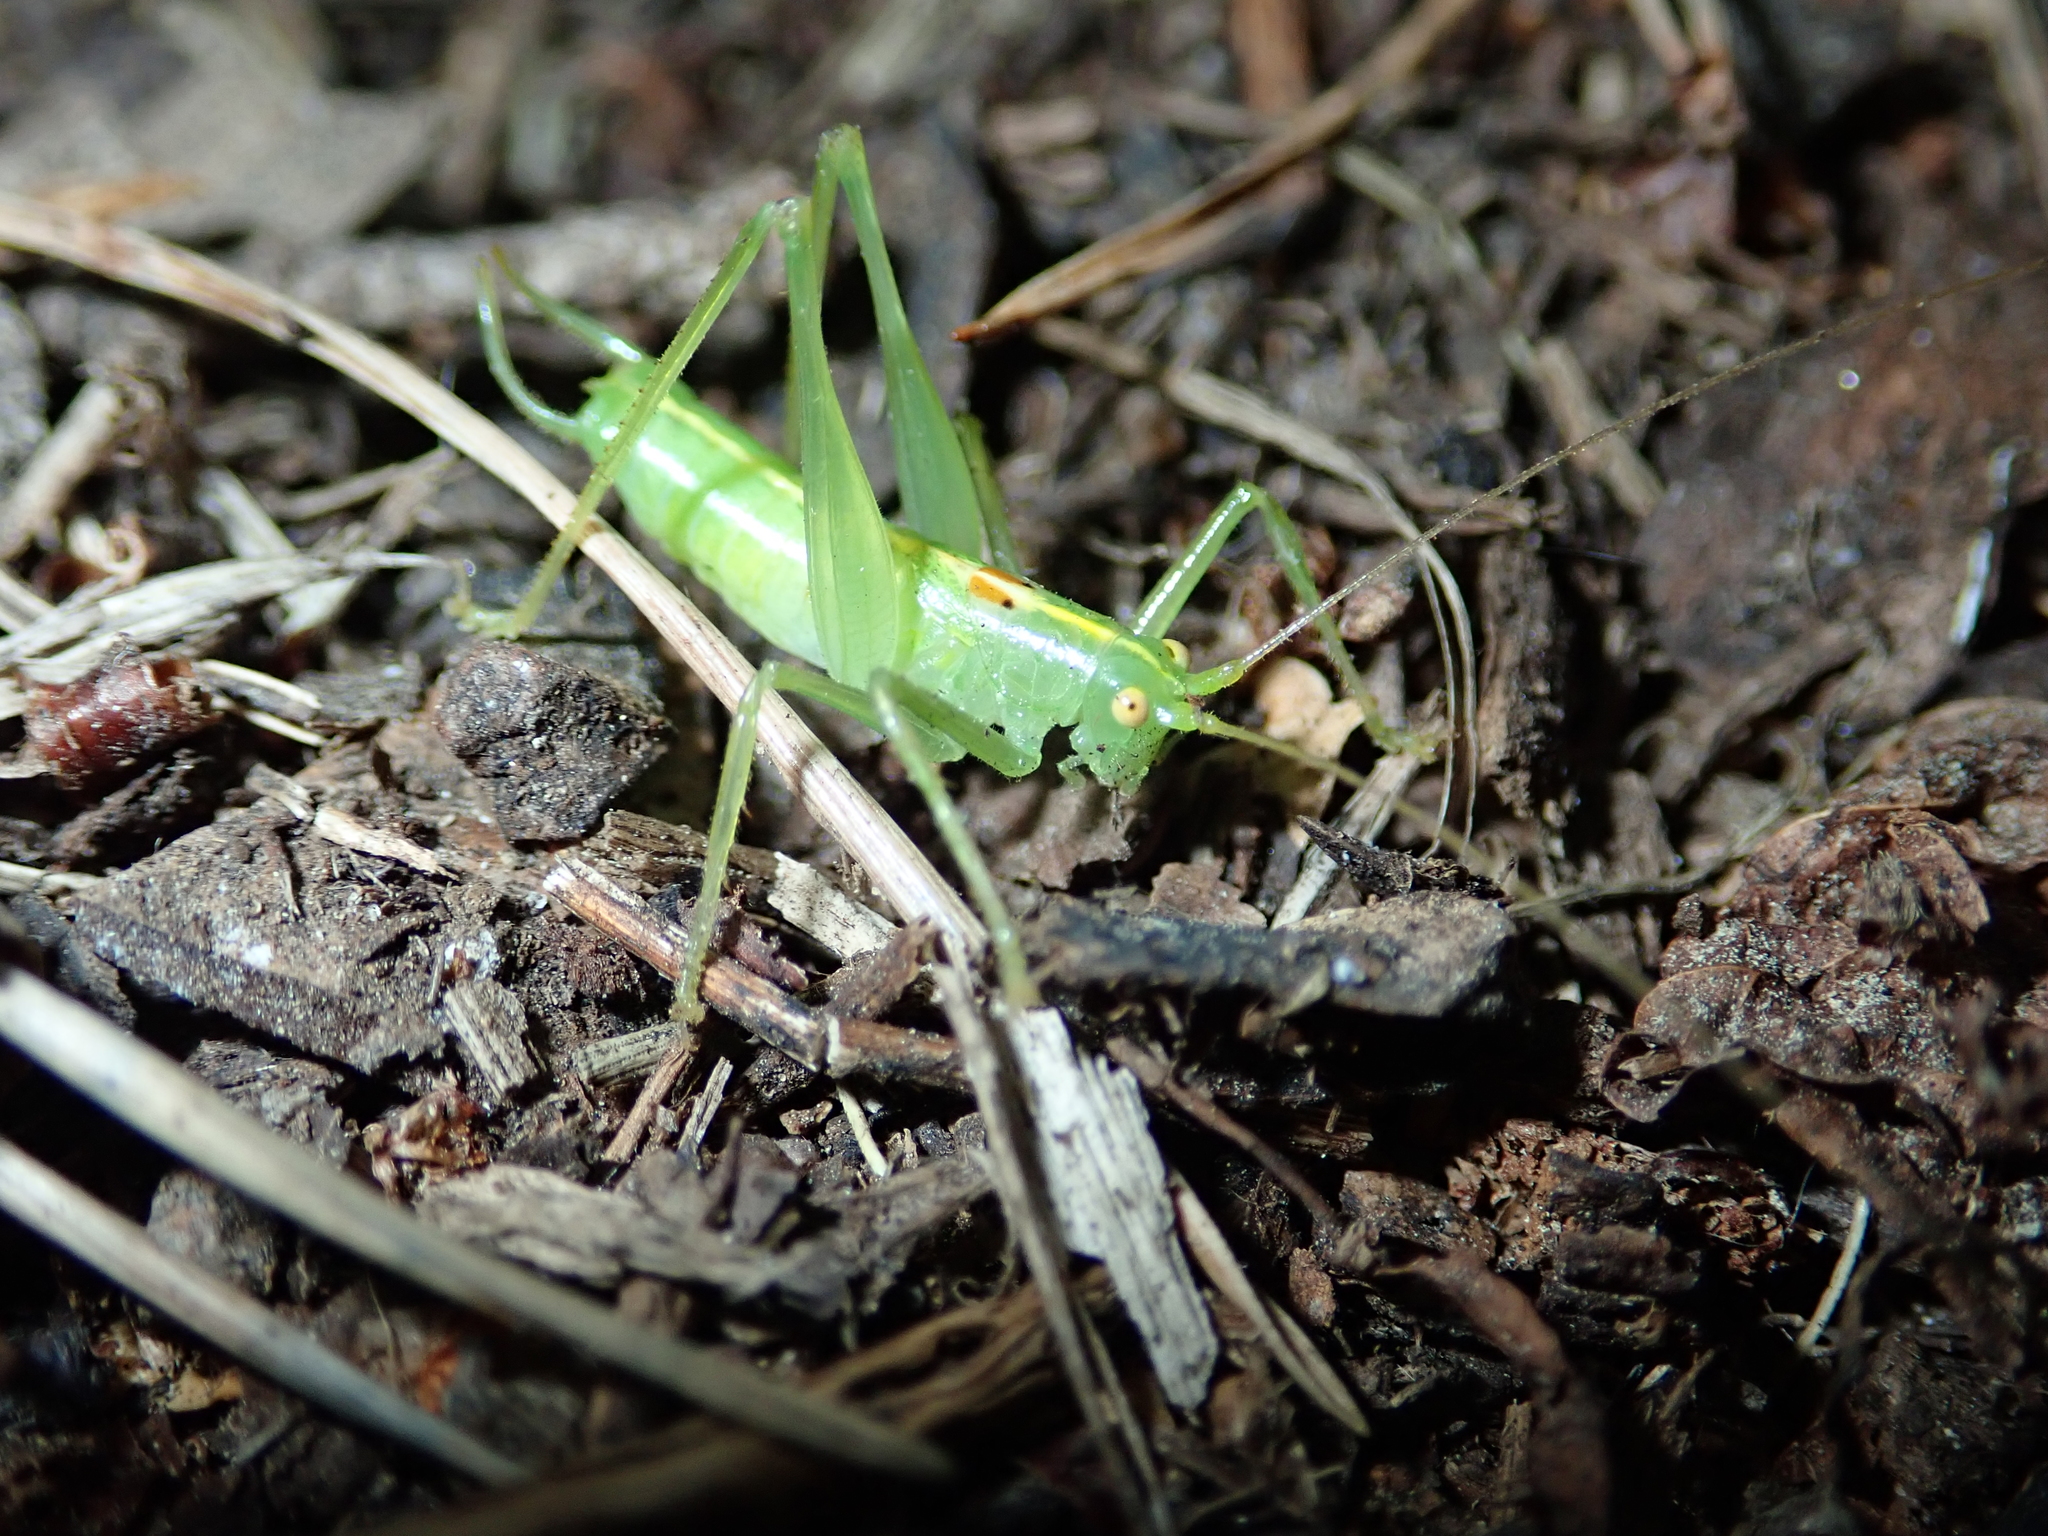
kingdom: Animalia
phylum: Arthropoda
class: Insecta
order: Orthoptera
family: Tettigoniidae
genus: Meconema
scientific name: Meconema meridionale
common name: Southern oak bush-cricket
